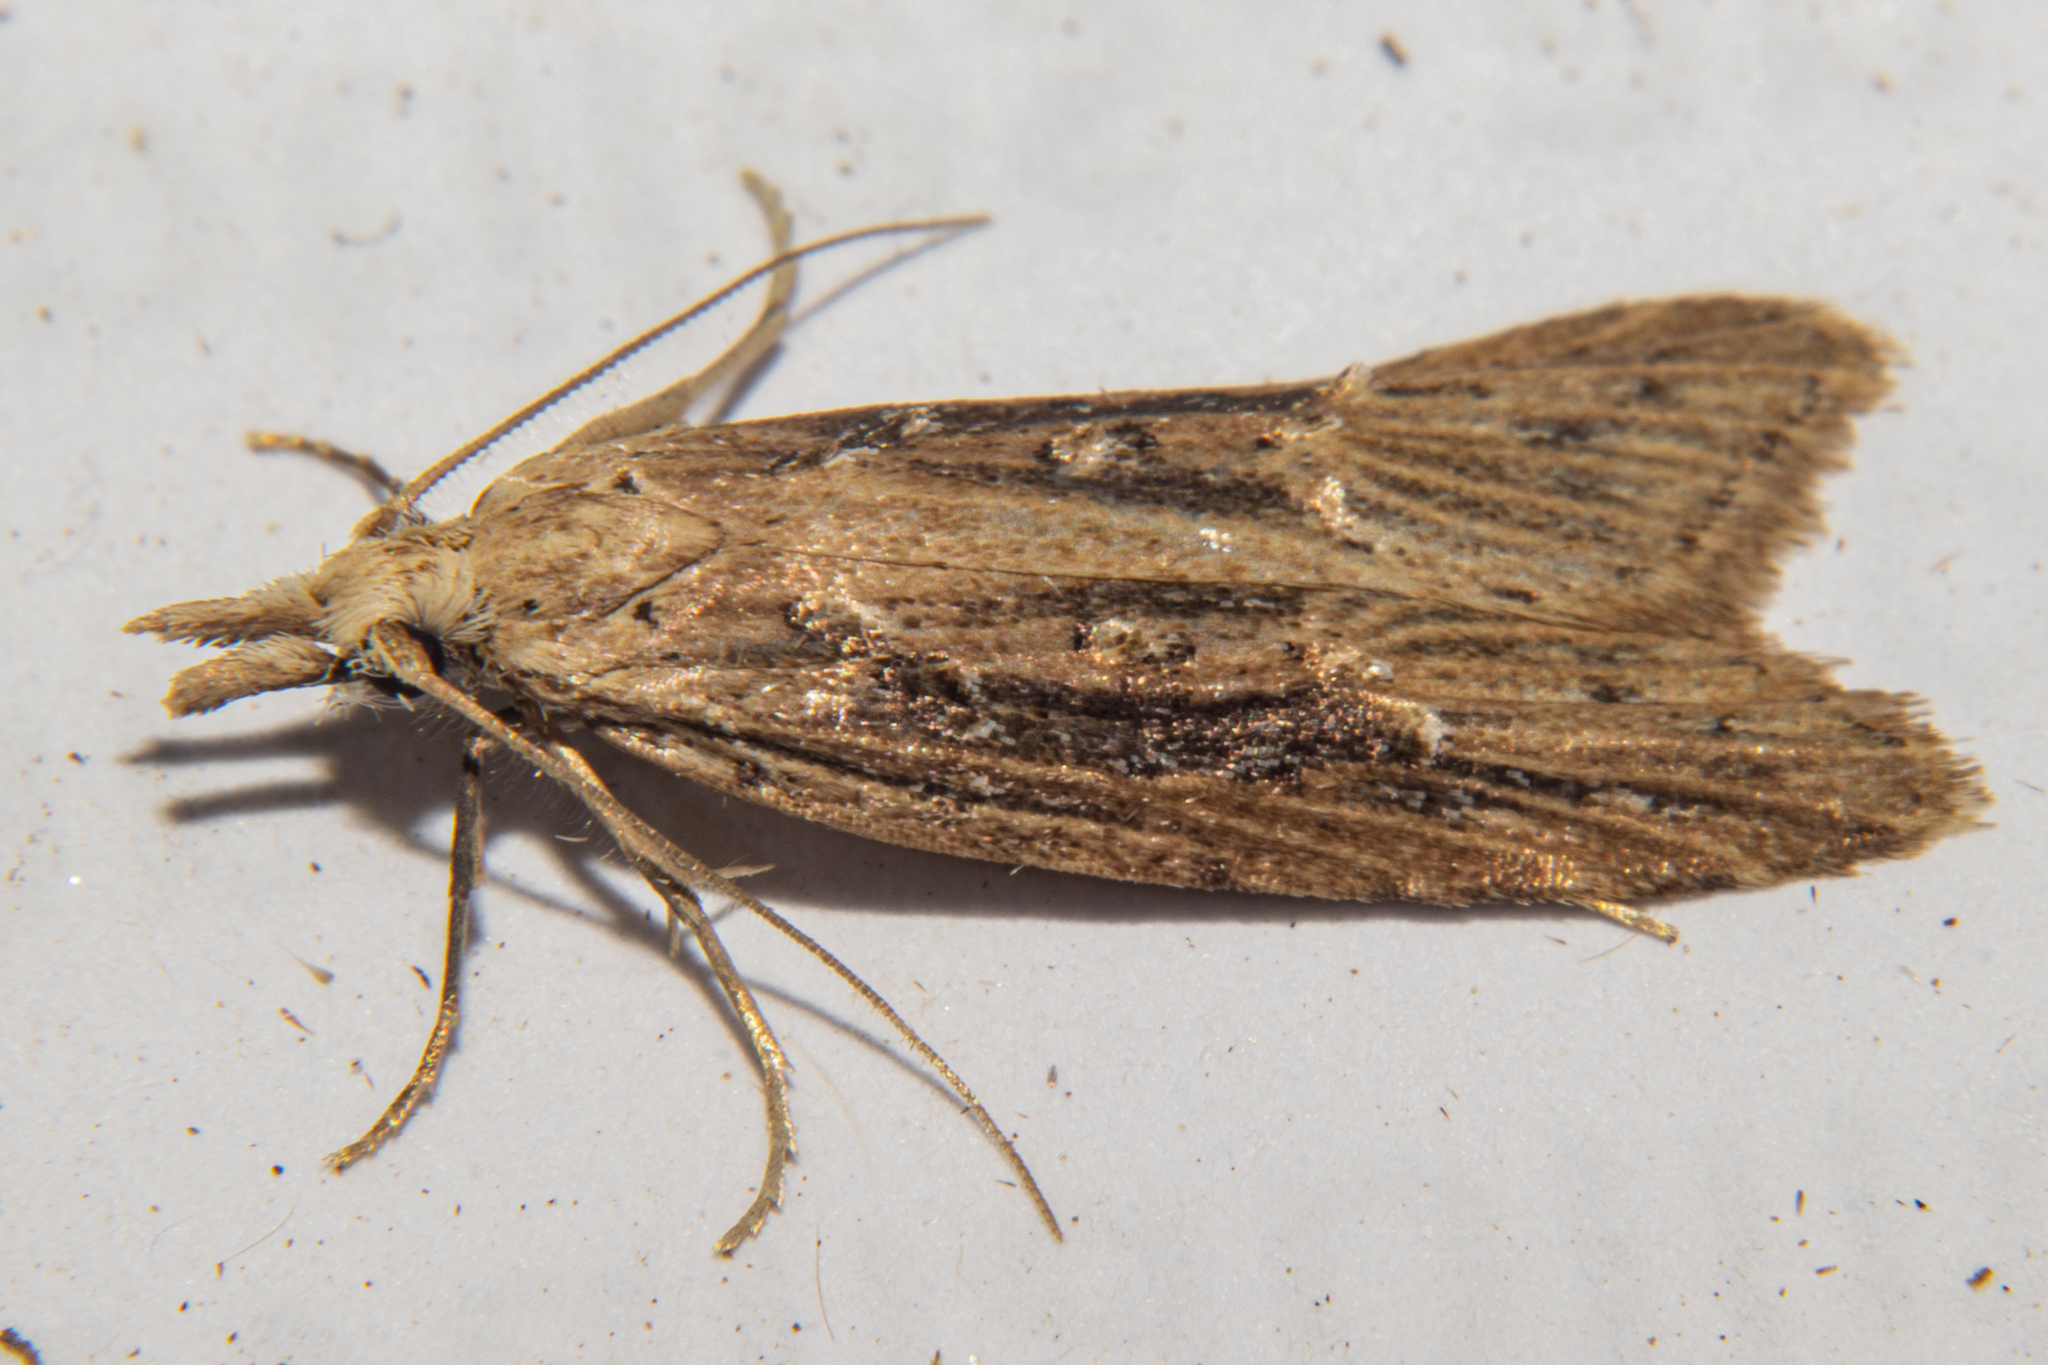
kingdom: Animalia
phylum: Arthropoda
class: Insecta
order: Lepidoptera
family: Carposinidae
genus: Carposina
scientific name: Carposina Heterocrossa exochana
